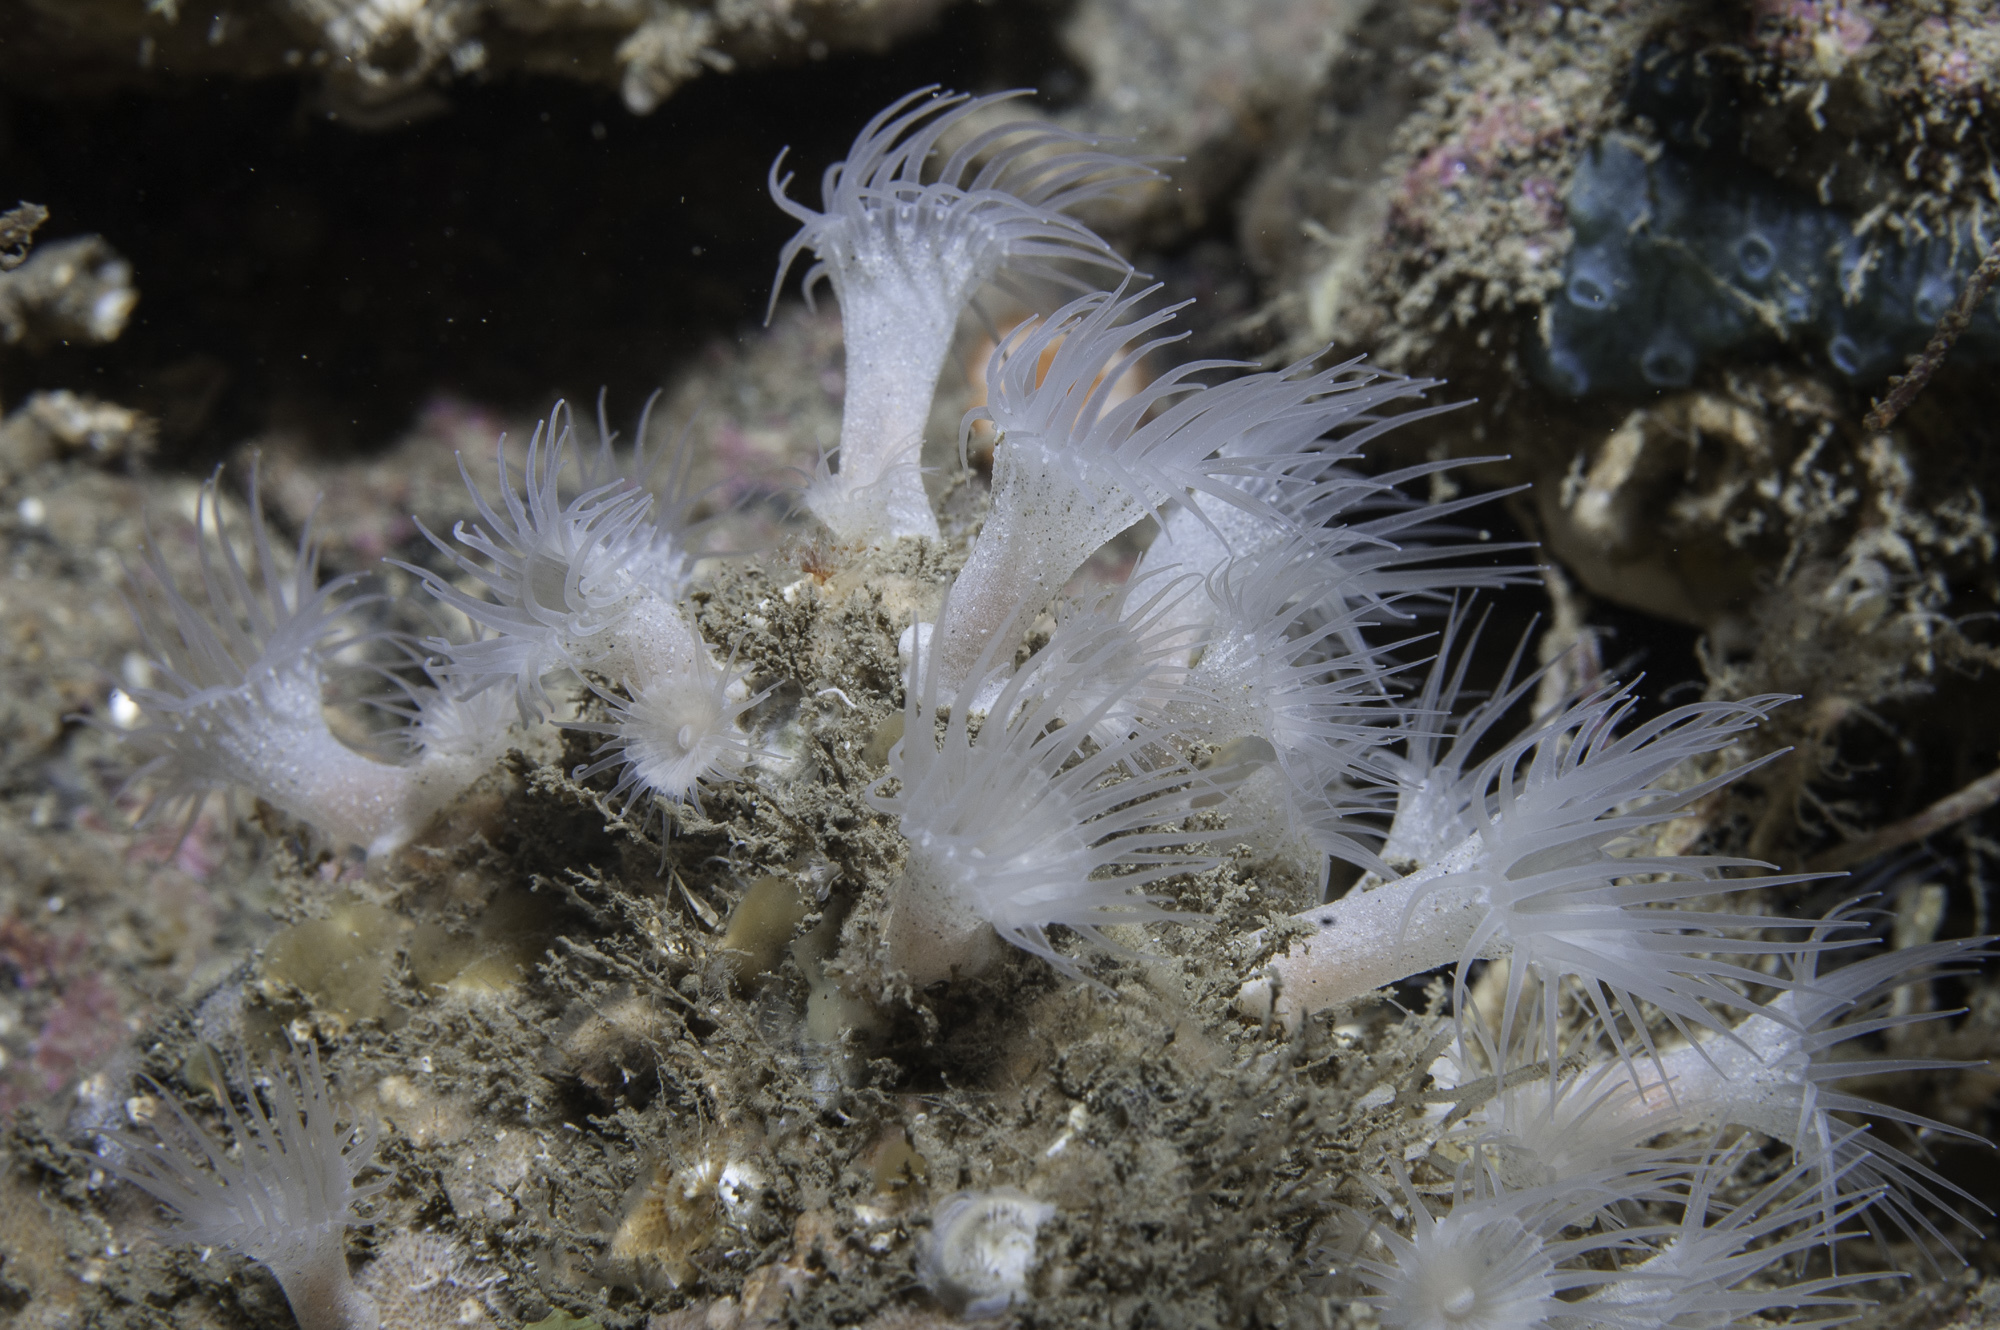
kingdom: Animalia
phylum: Cnidaria
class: Anthozoa
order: Zoantharia
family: Parazoanthidae
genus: Parazoanthus
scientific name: Parazoanthus anguicomus
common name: White cluster anemone
